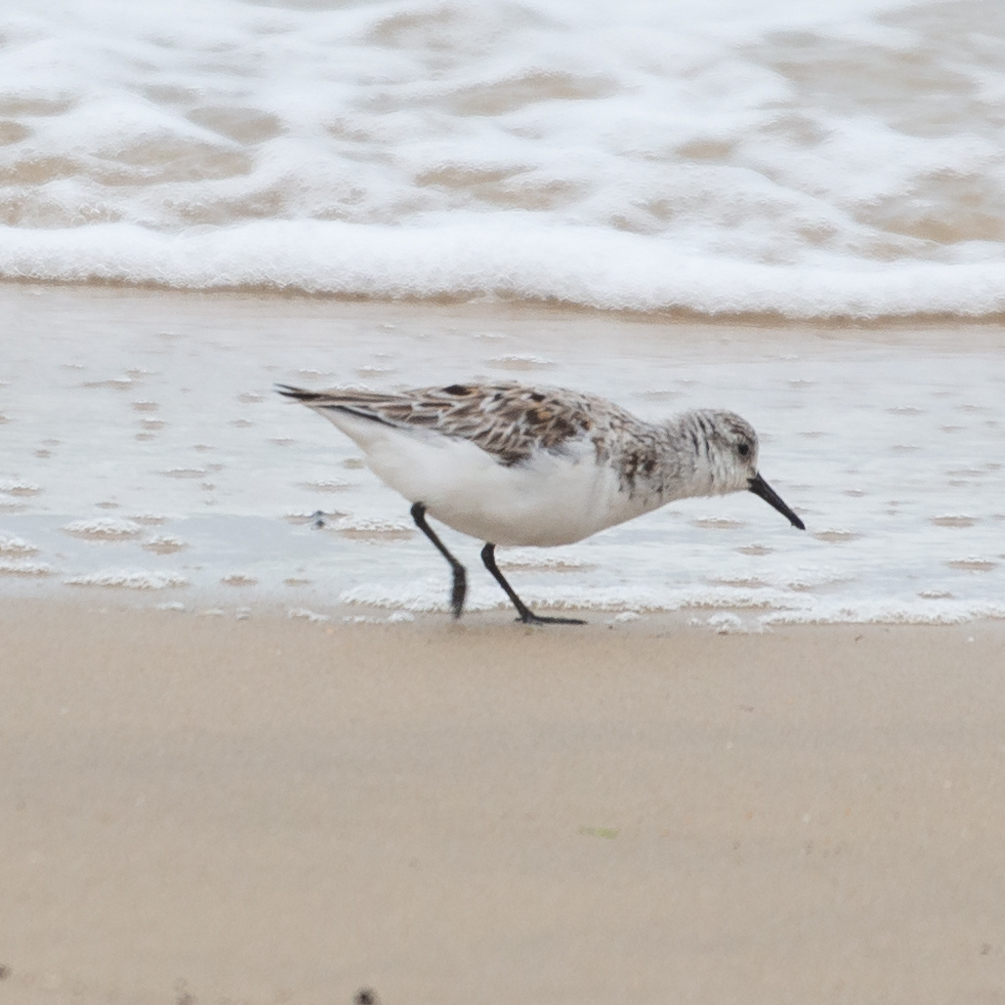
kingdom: Animalia
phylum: Chordata
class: Aves
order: Charadriiformes
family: Scolopacidae
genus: Calidris
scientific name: Calidris alba
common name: Sanderling
